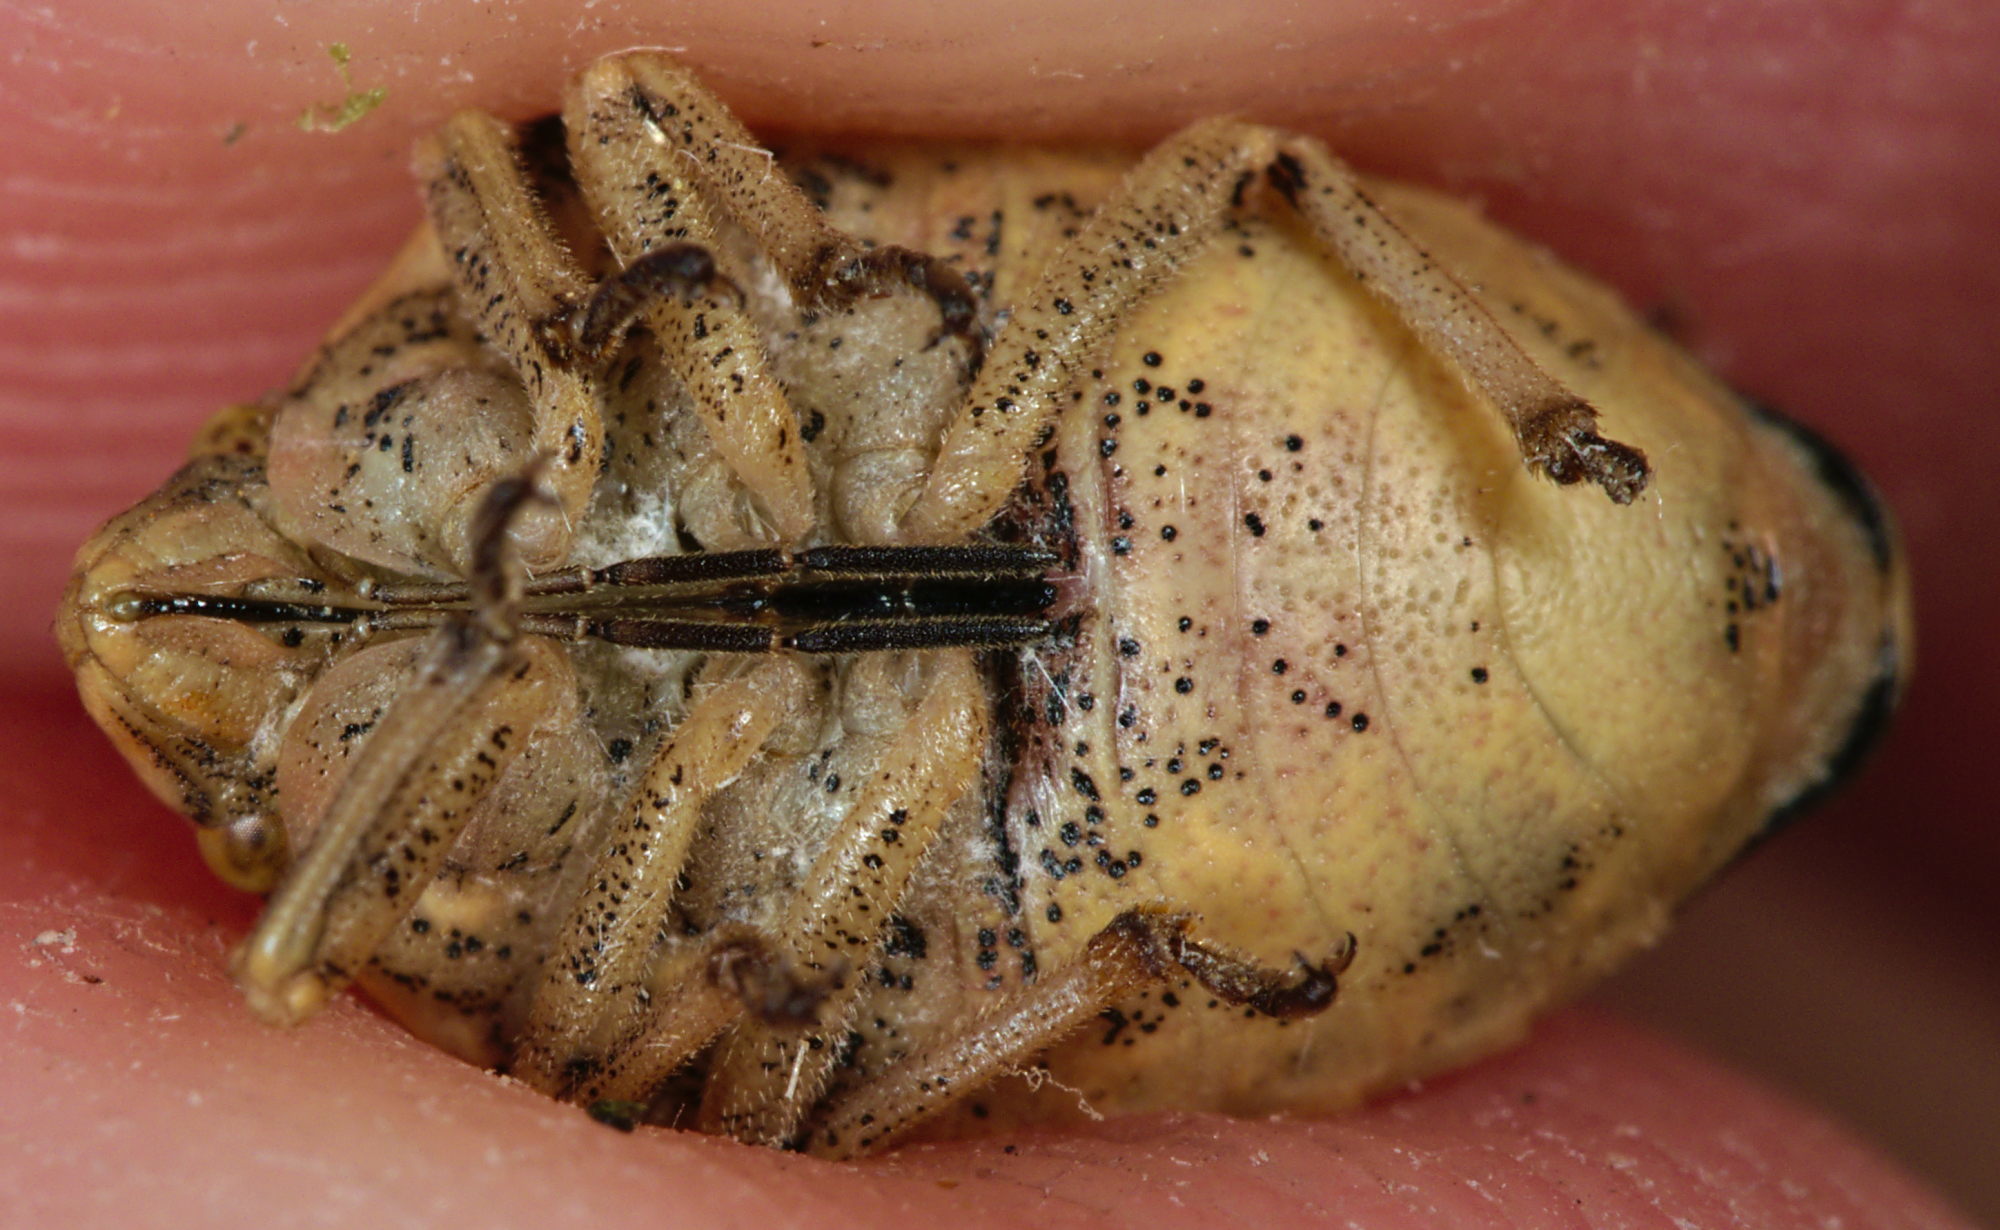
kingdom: Animalia
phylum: Arthropoda
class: Insecta
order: Hemiptera
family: Scutelleridae
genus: Odontotarsus
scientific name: Odontotarsus purpureolineatus
